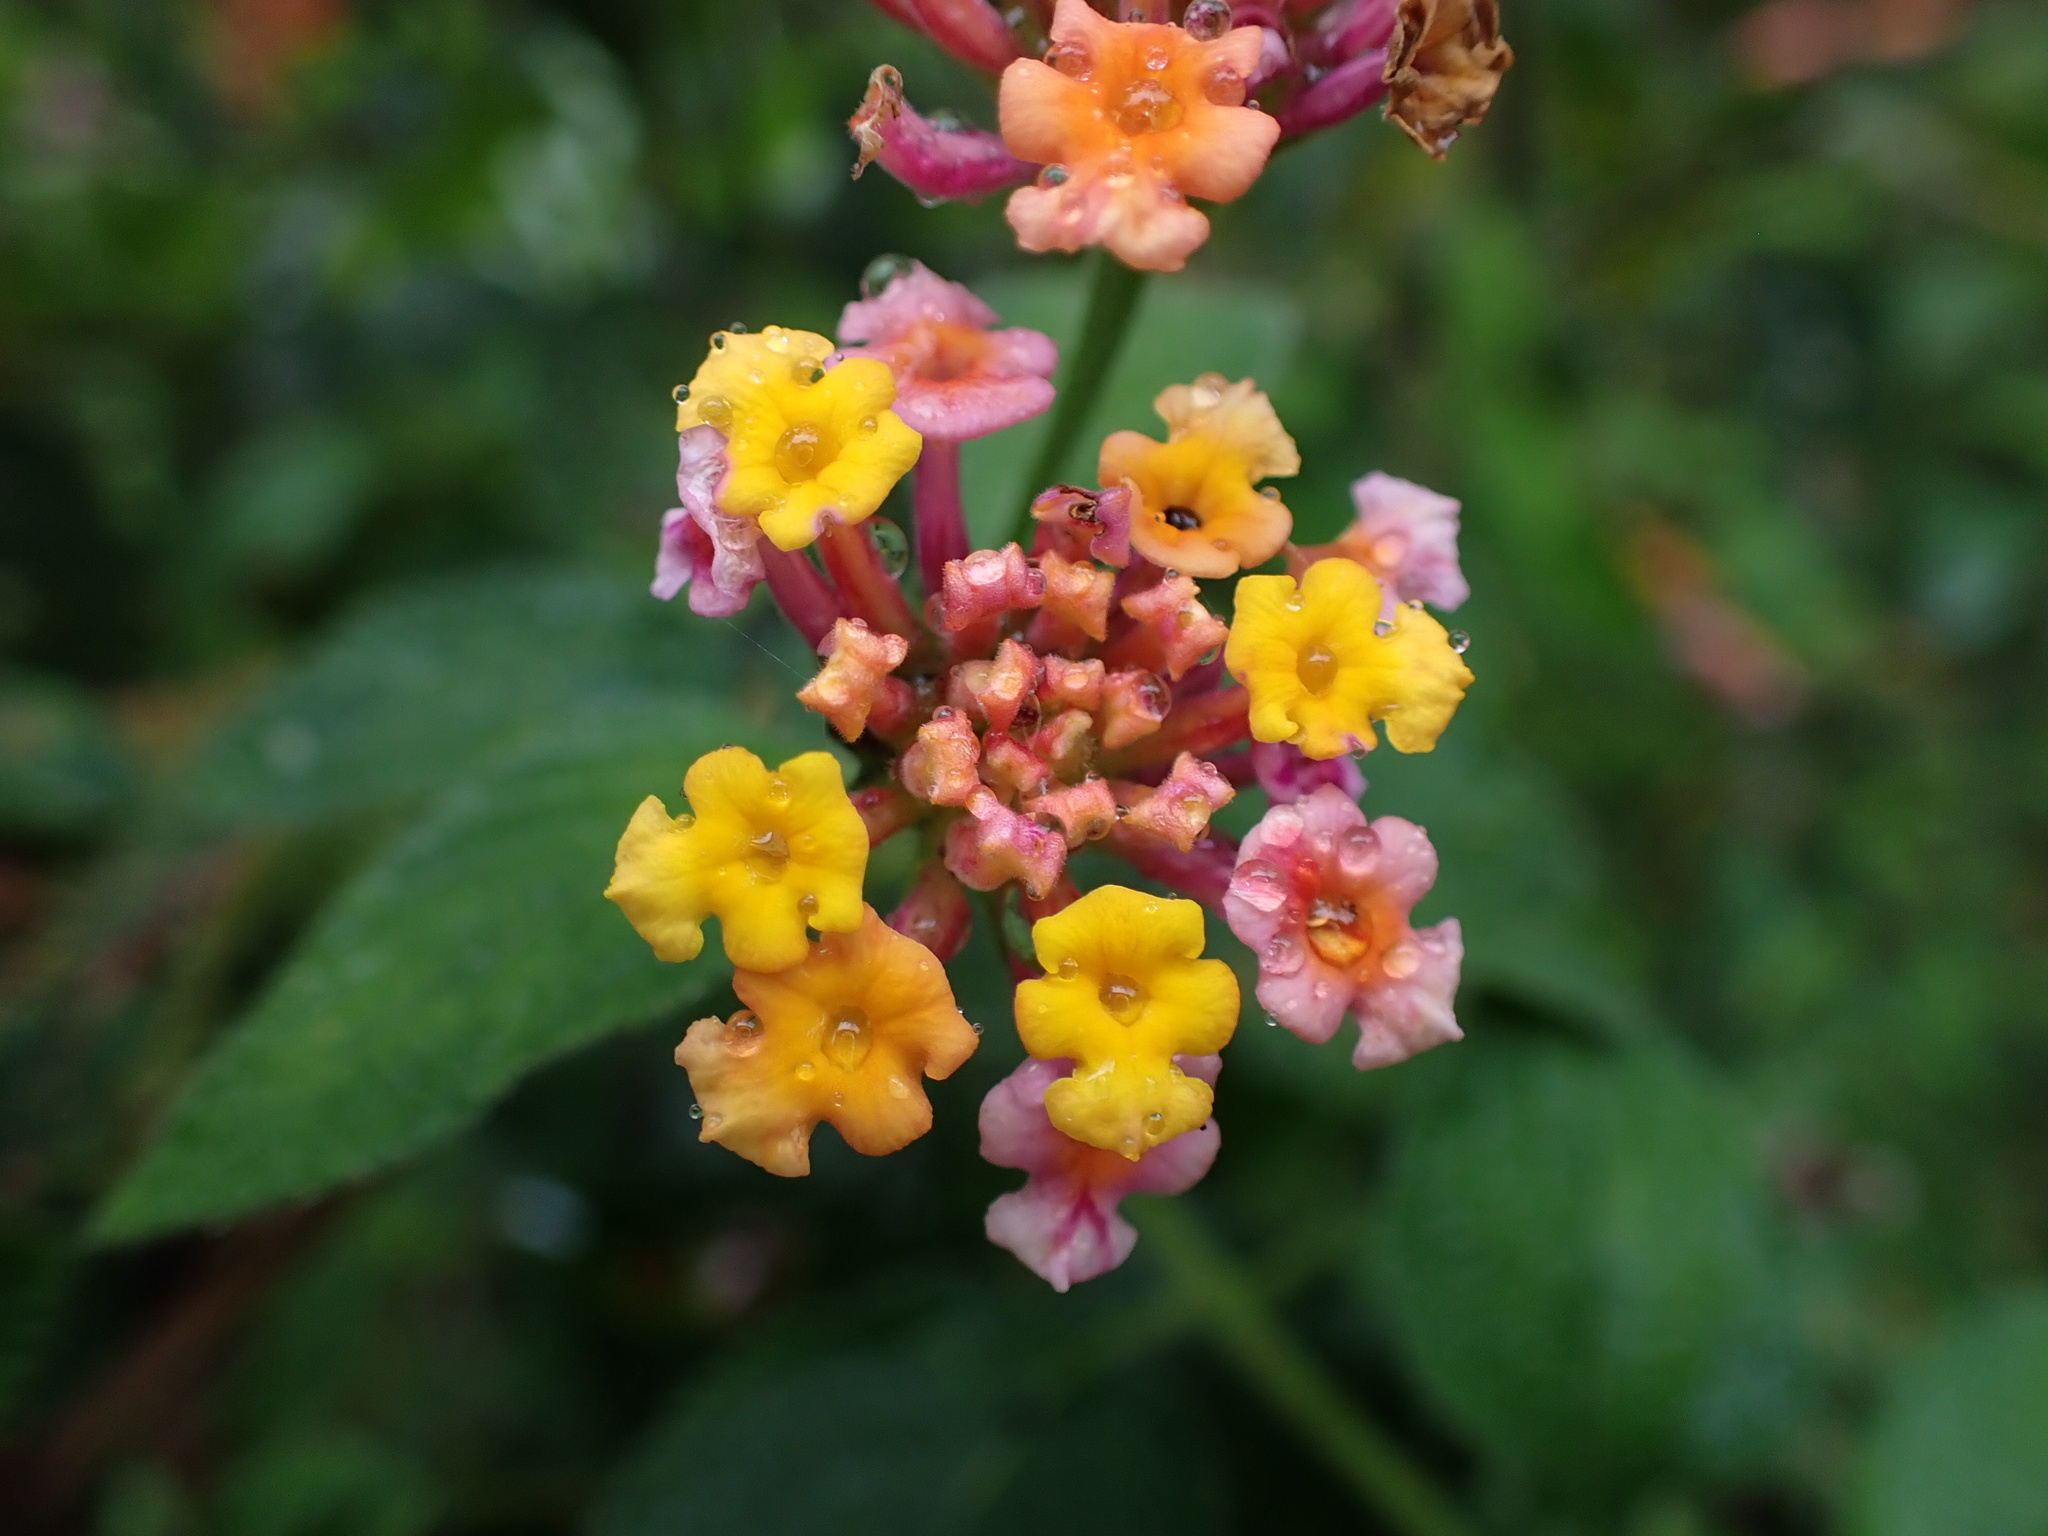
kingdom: Plantae
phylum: Tracheophyta
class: Magnoliopsida
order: Lamiales
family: Verbenaceae
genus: Lantana
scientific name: Lantana camara
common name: Lantana
